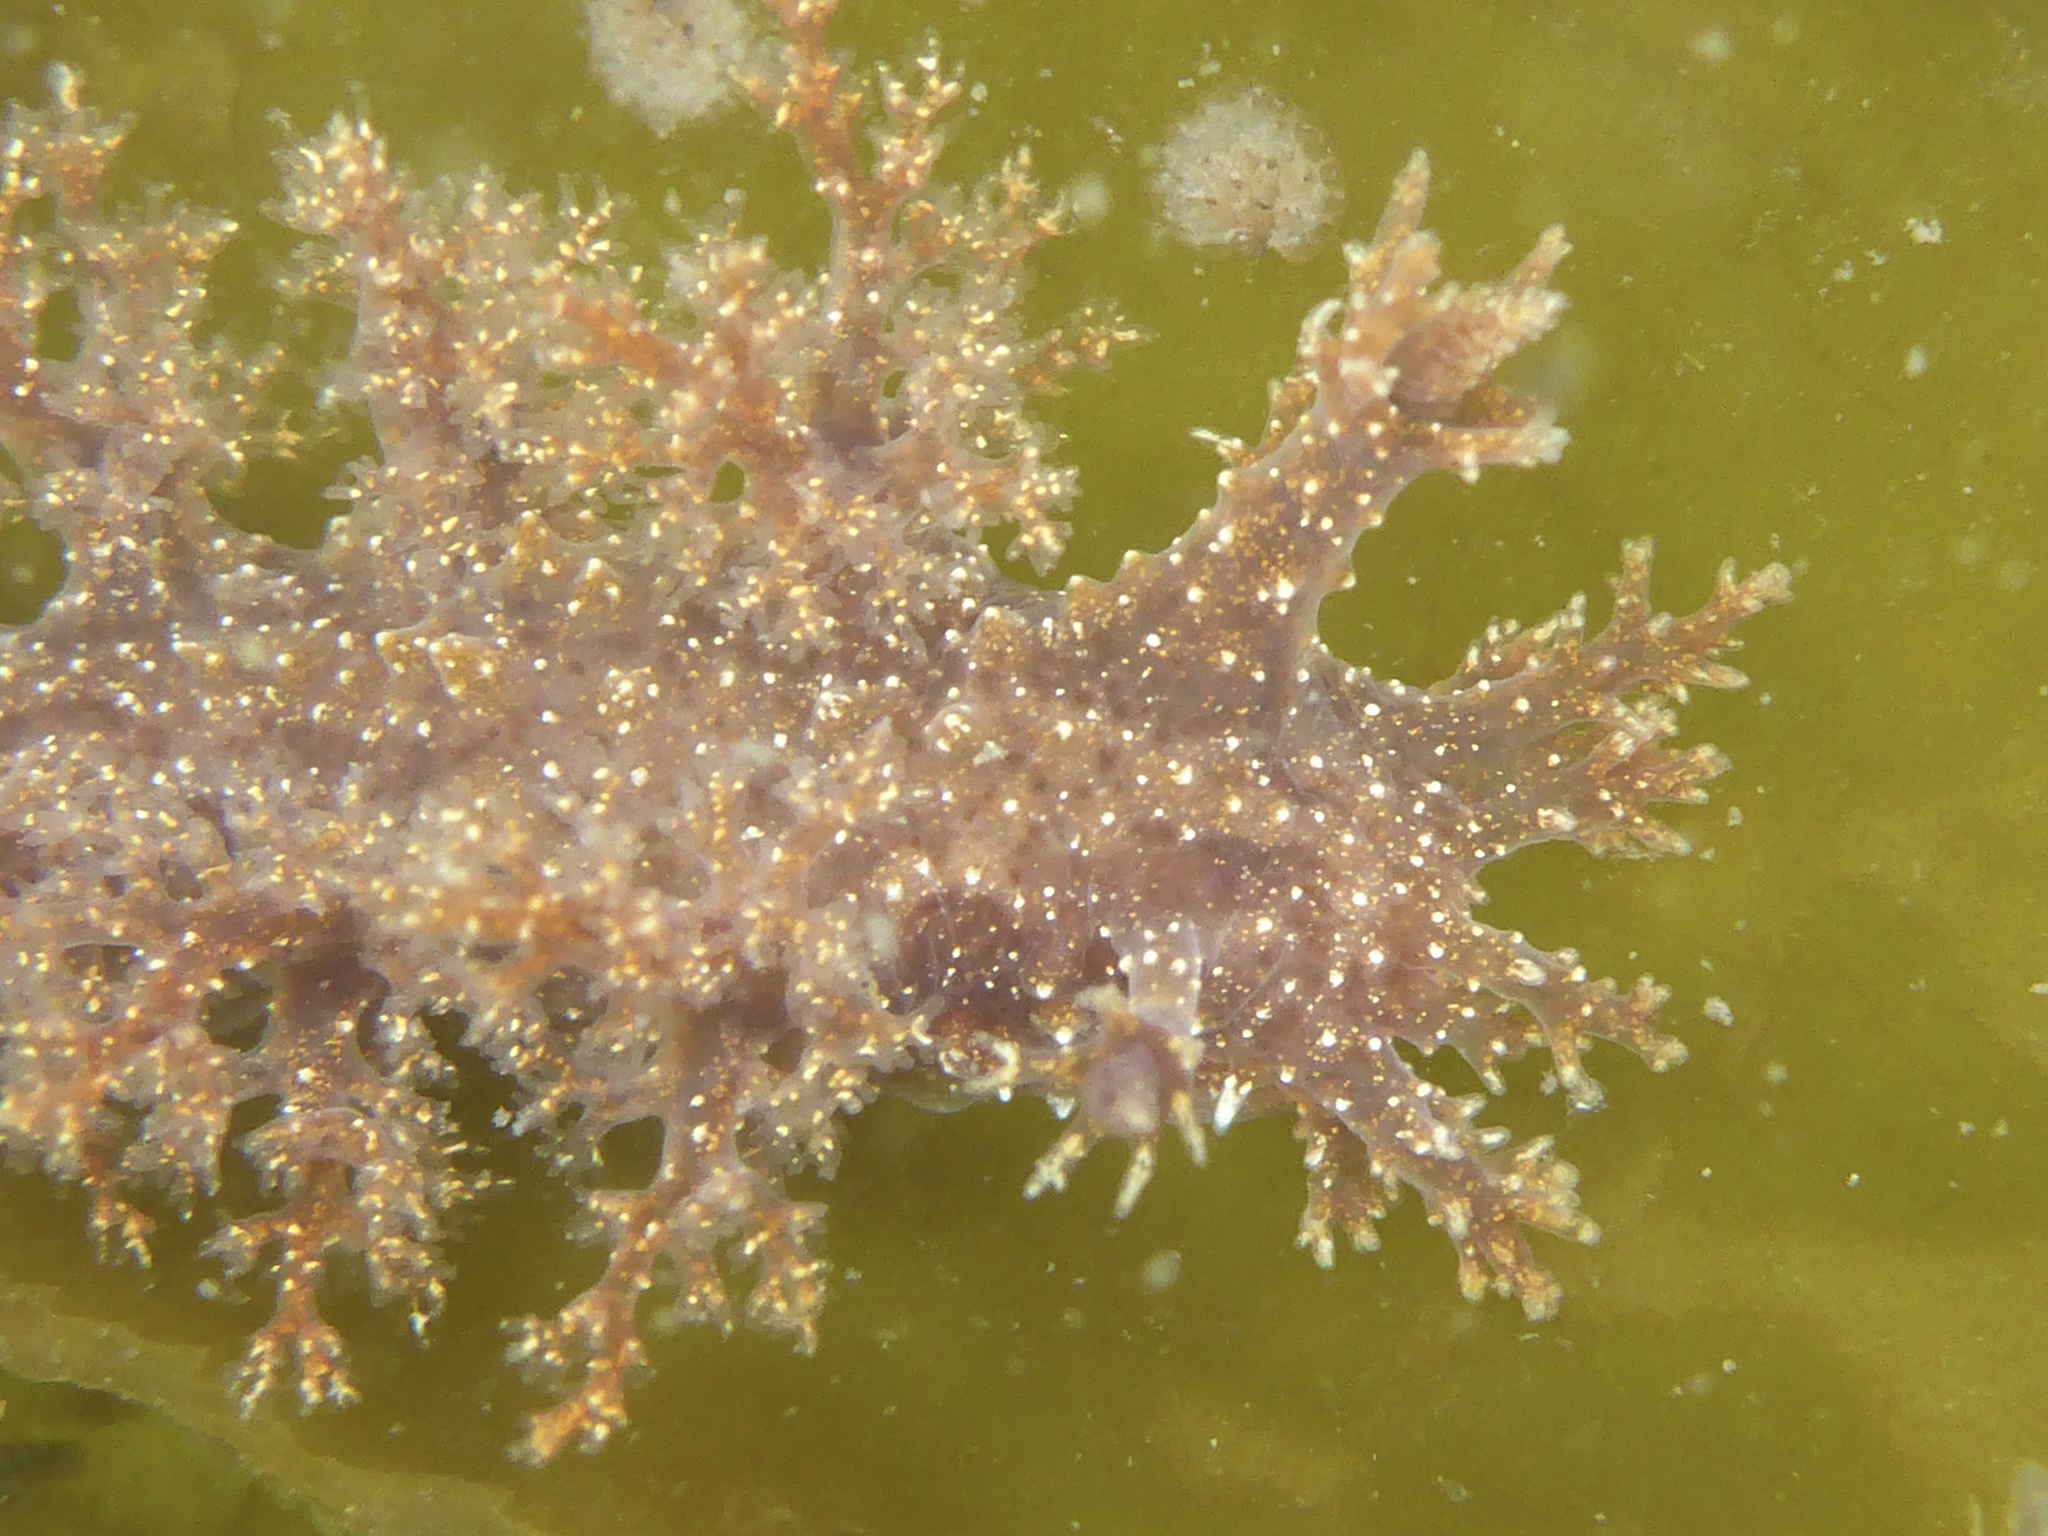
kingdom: Animalia
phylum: Mollusca
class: Gastropoda
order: Nudibranchia
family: Dendronotidae
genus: Dendronotus
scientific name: Dendronotus venustus
